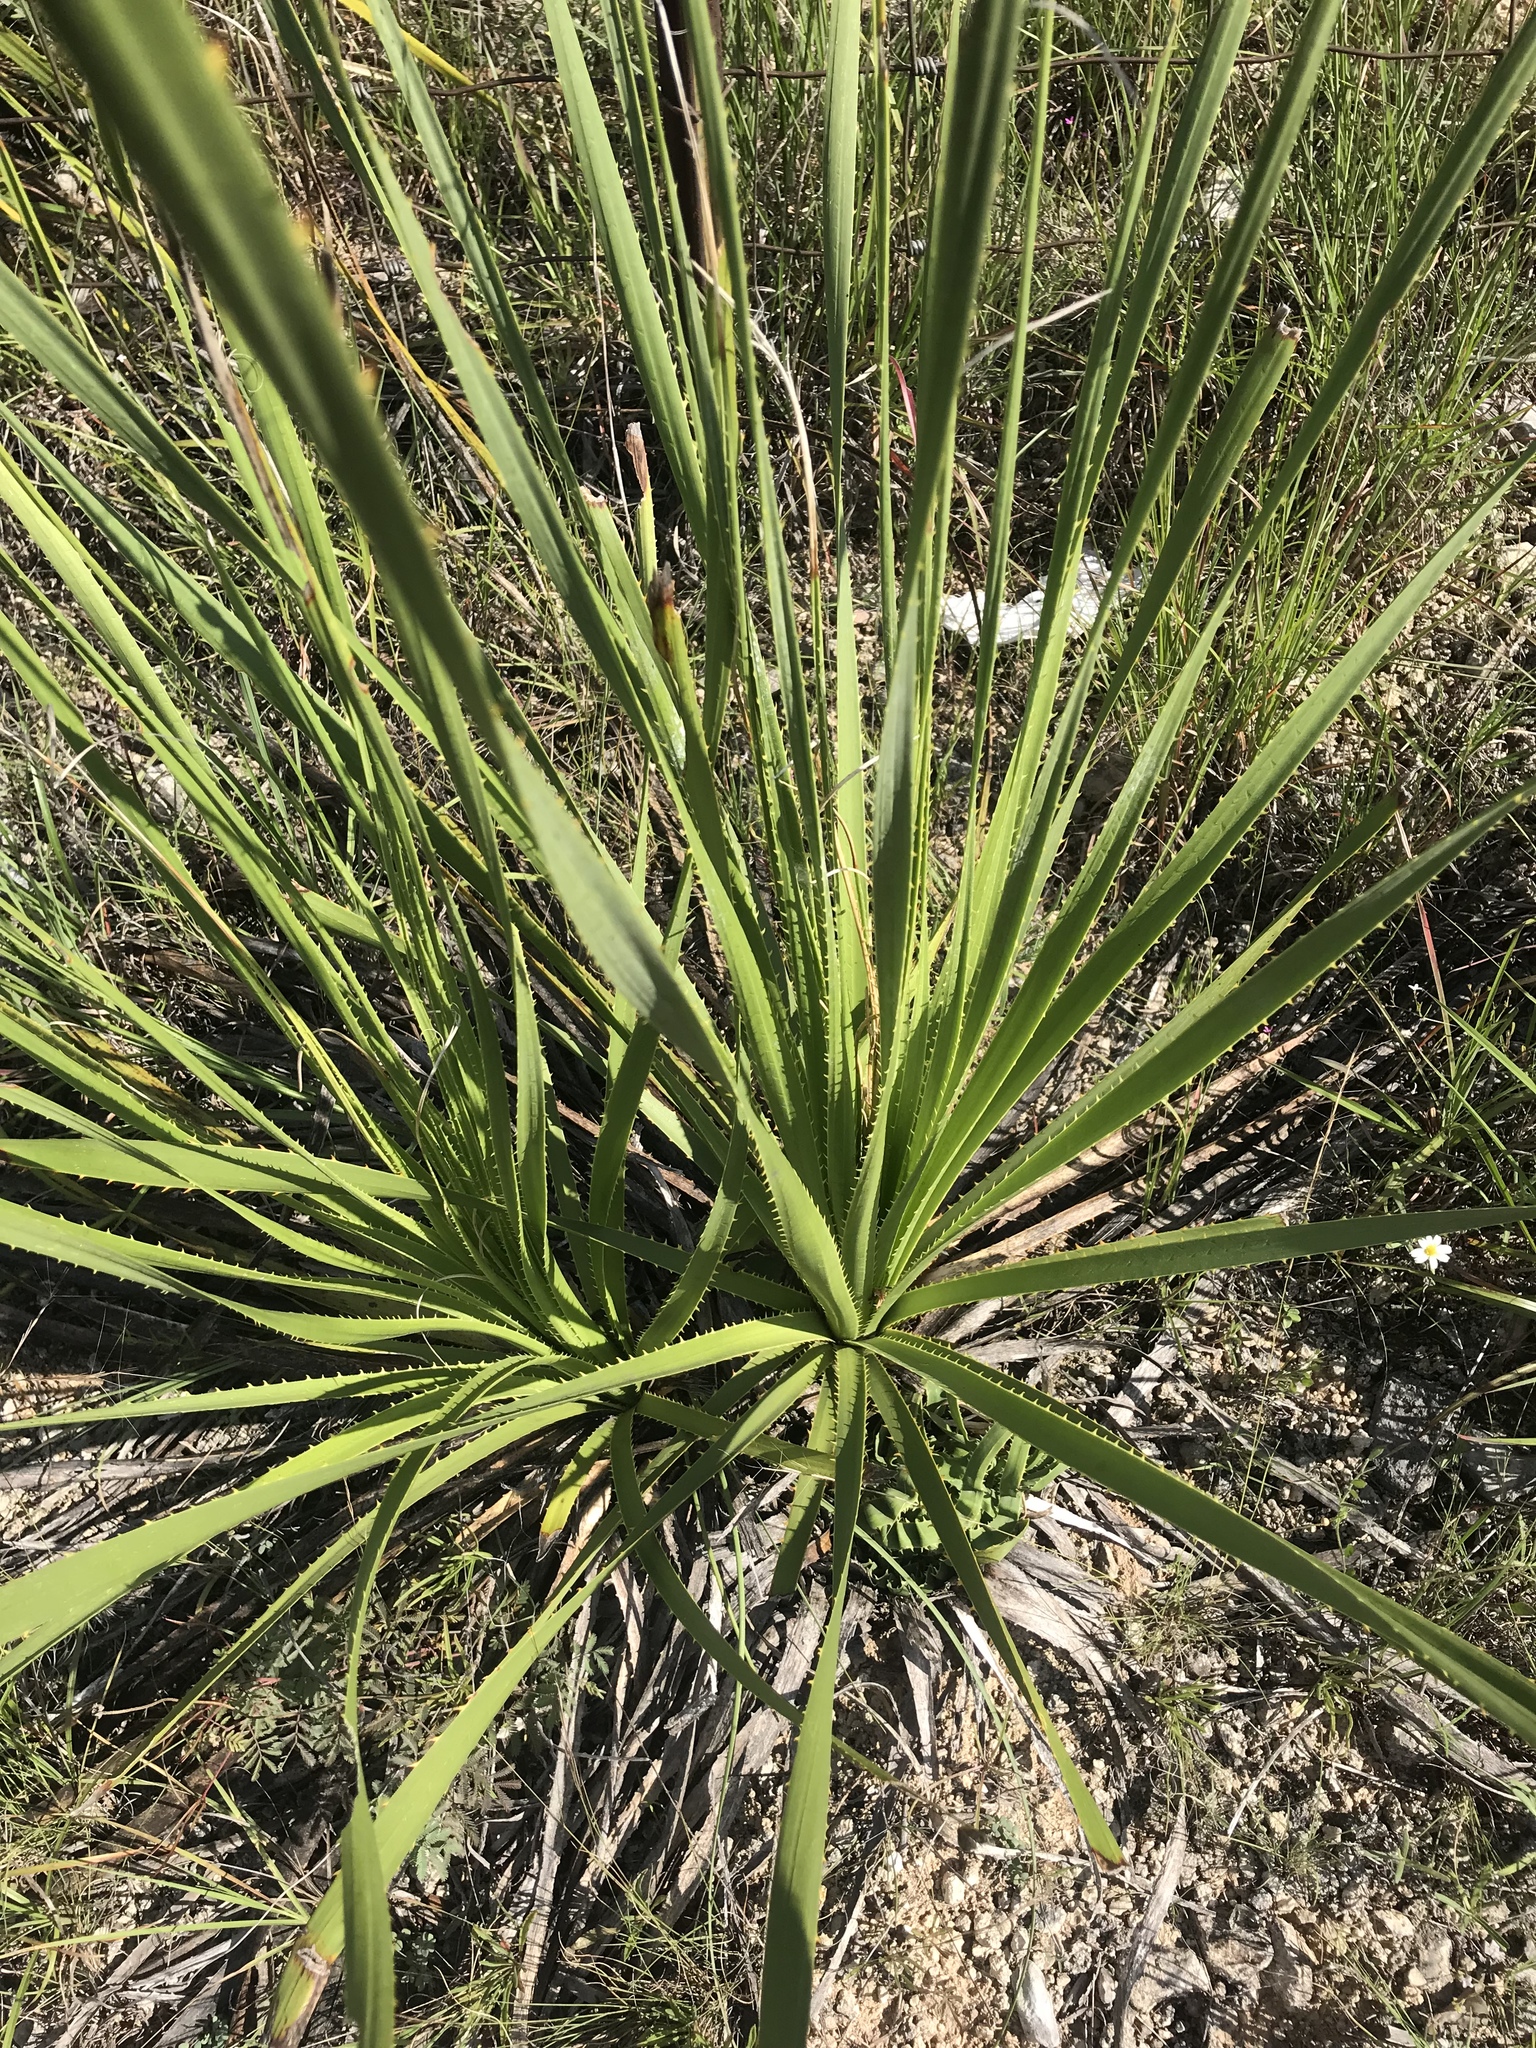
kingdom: Plantae
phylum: Tracheophyta
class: Liliopsida
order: Asparagales
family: Asparagaceae
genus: Dasylirion
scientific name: Dasylirion texanum
